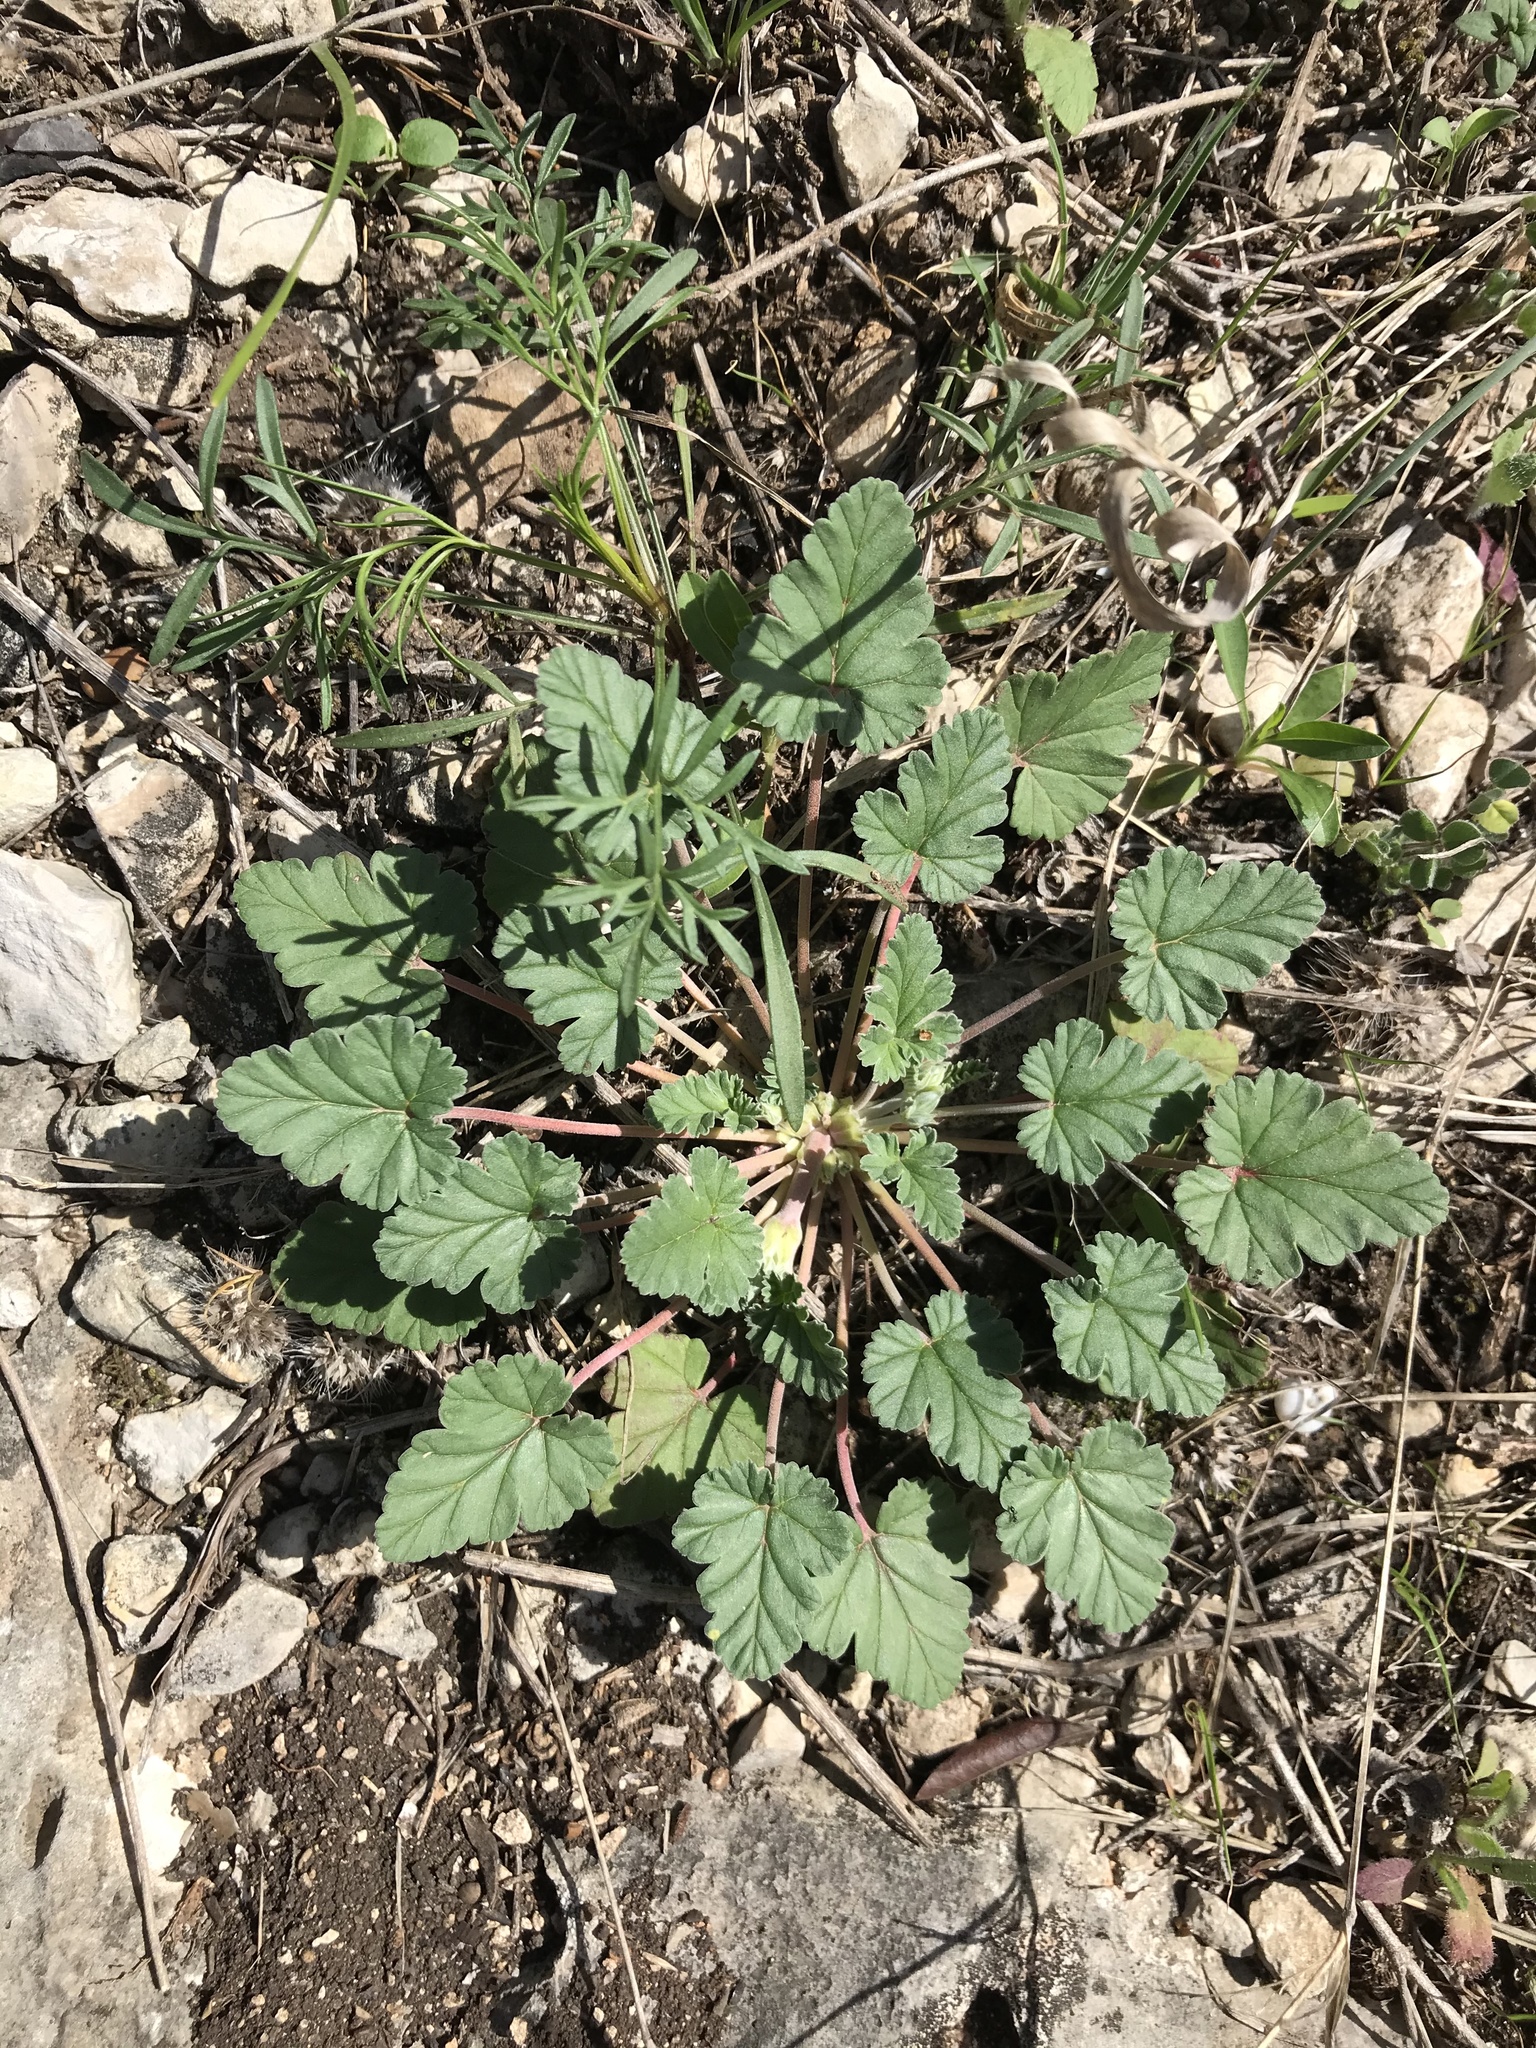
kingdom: Plantae
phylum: Tracheophyta
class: Magnoliopsida
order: Geraniales
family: Geraniaceae
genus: Erodium
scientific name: Erodium texanum
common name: Texas stork's-bill
